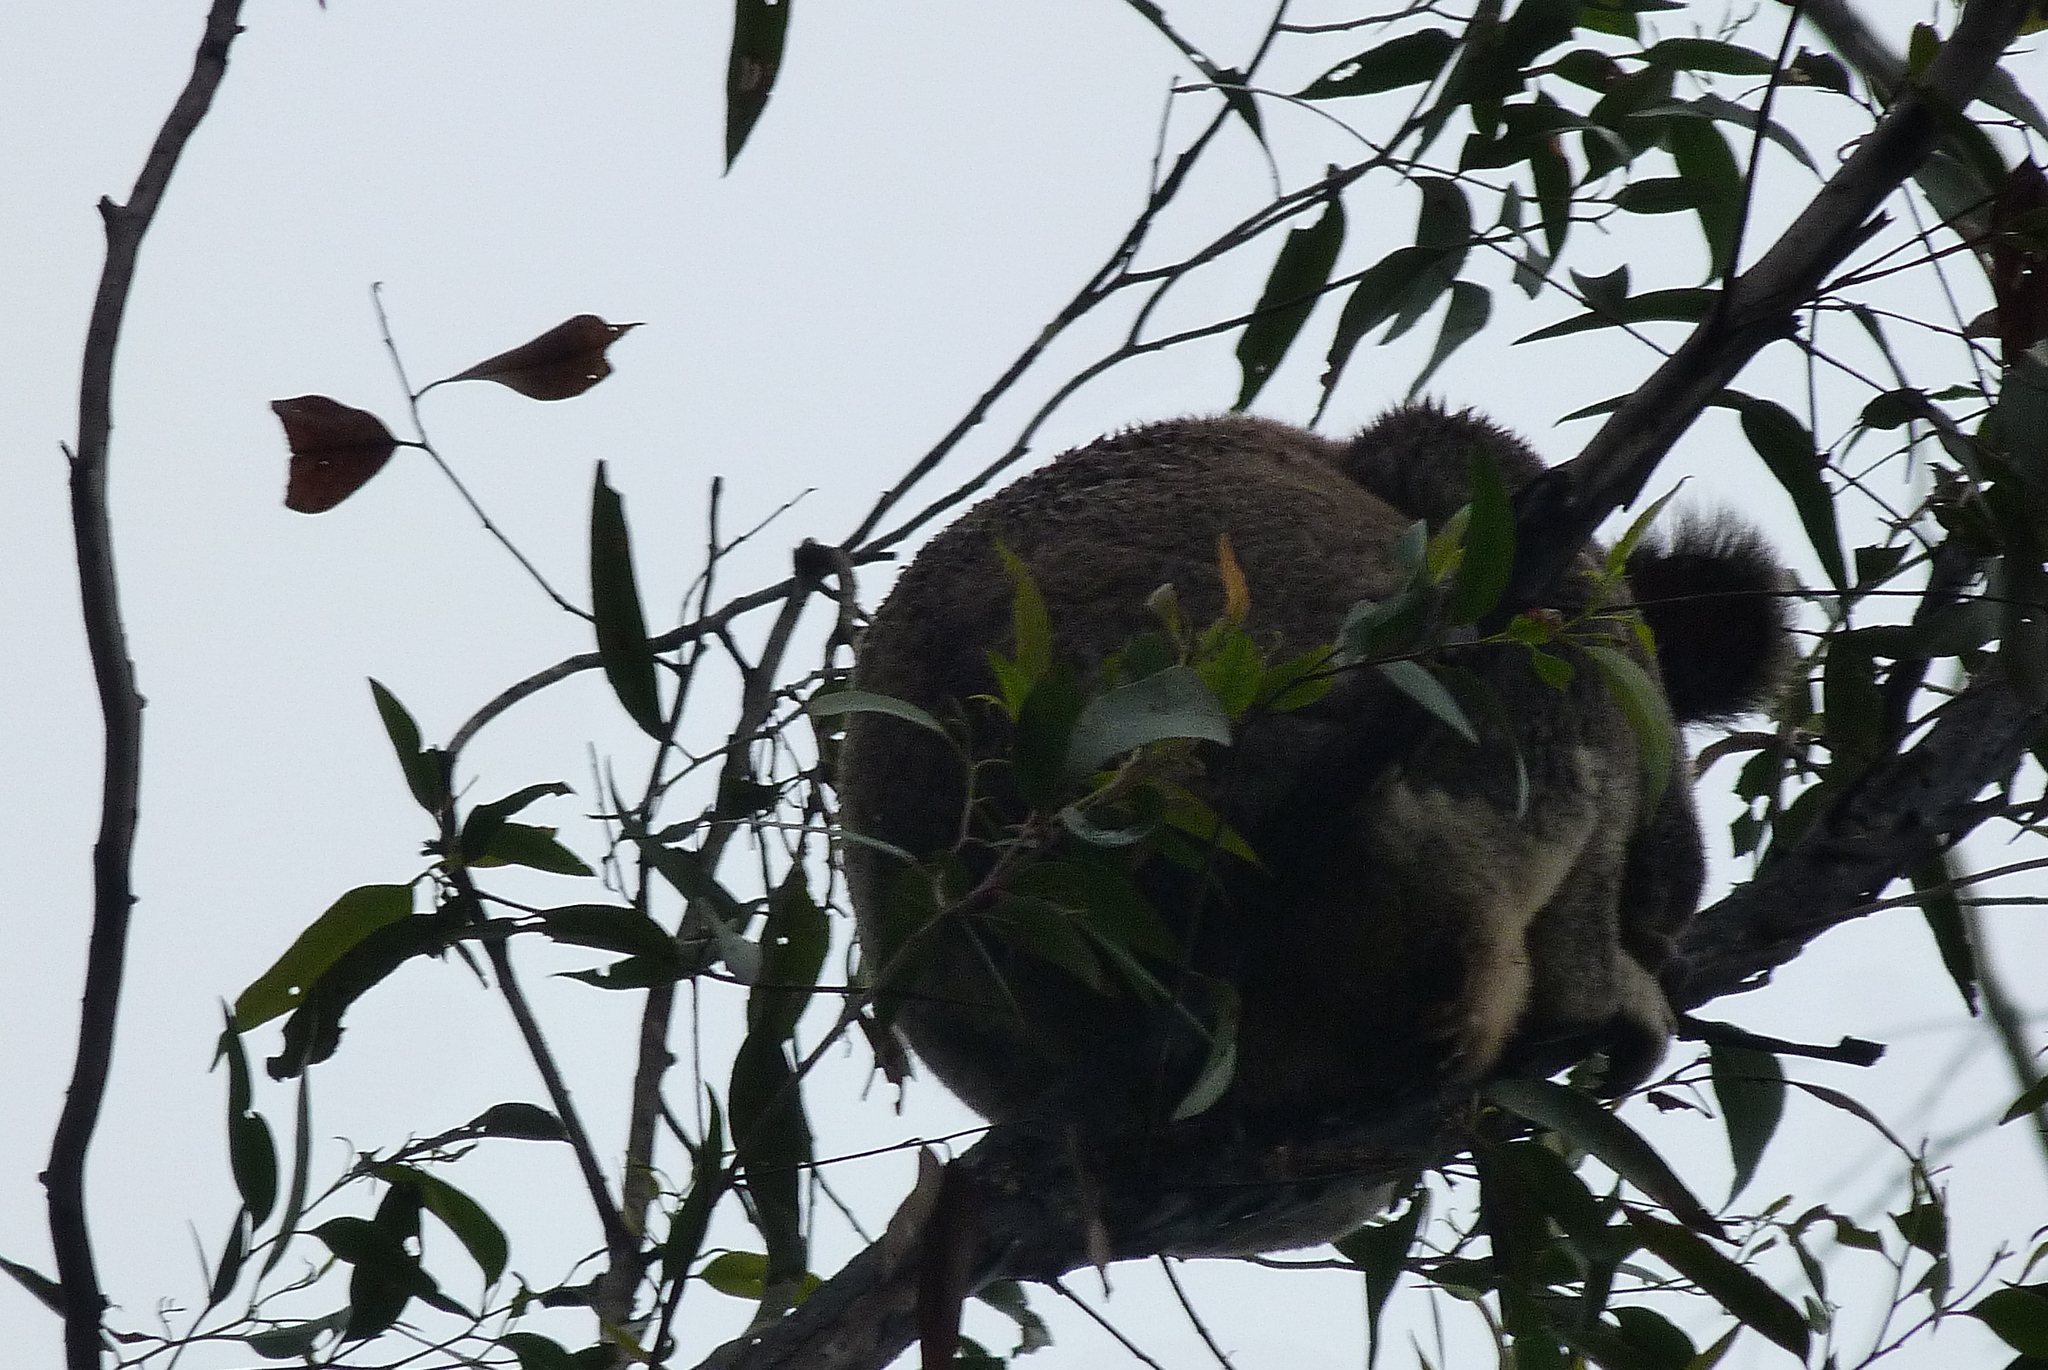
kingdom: Animalia
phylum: Chordata
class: Mammalia
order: Diprotodontia
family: Phascolarctidae
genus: Phascolarctos
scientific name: Phascolarctos cinereus
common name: Koala
